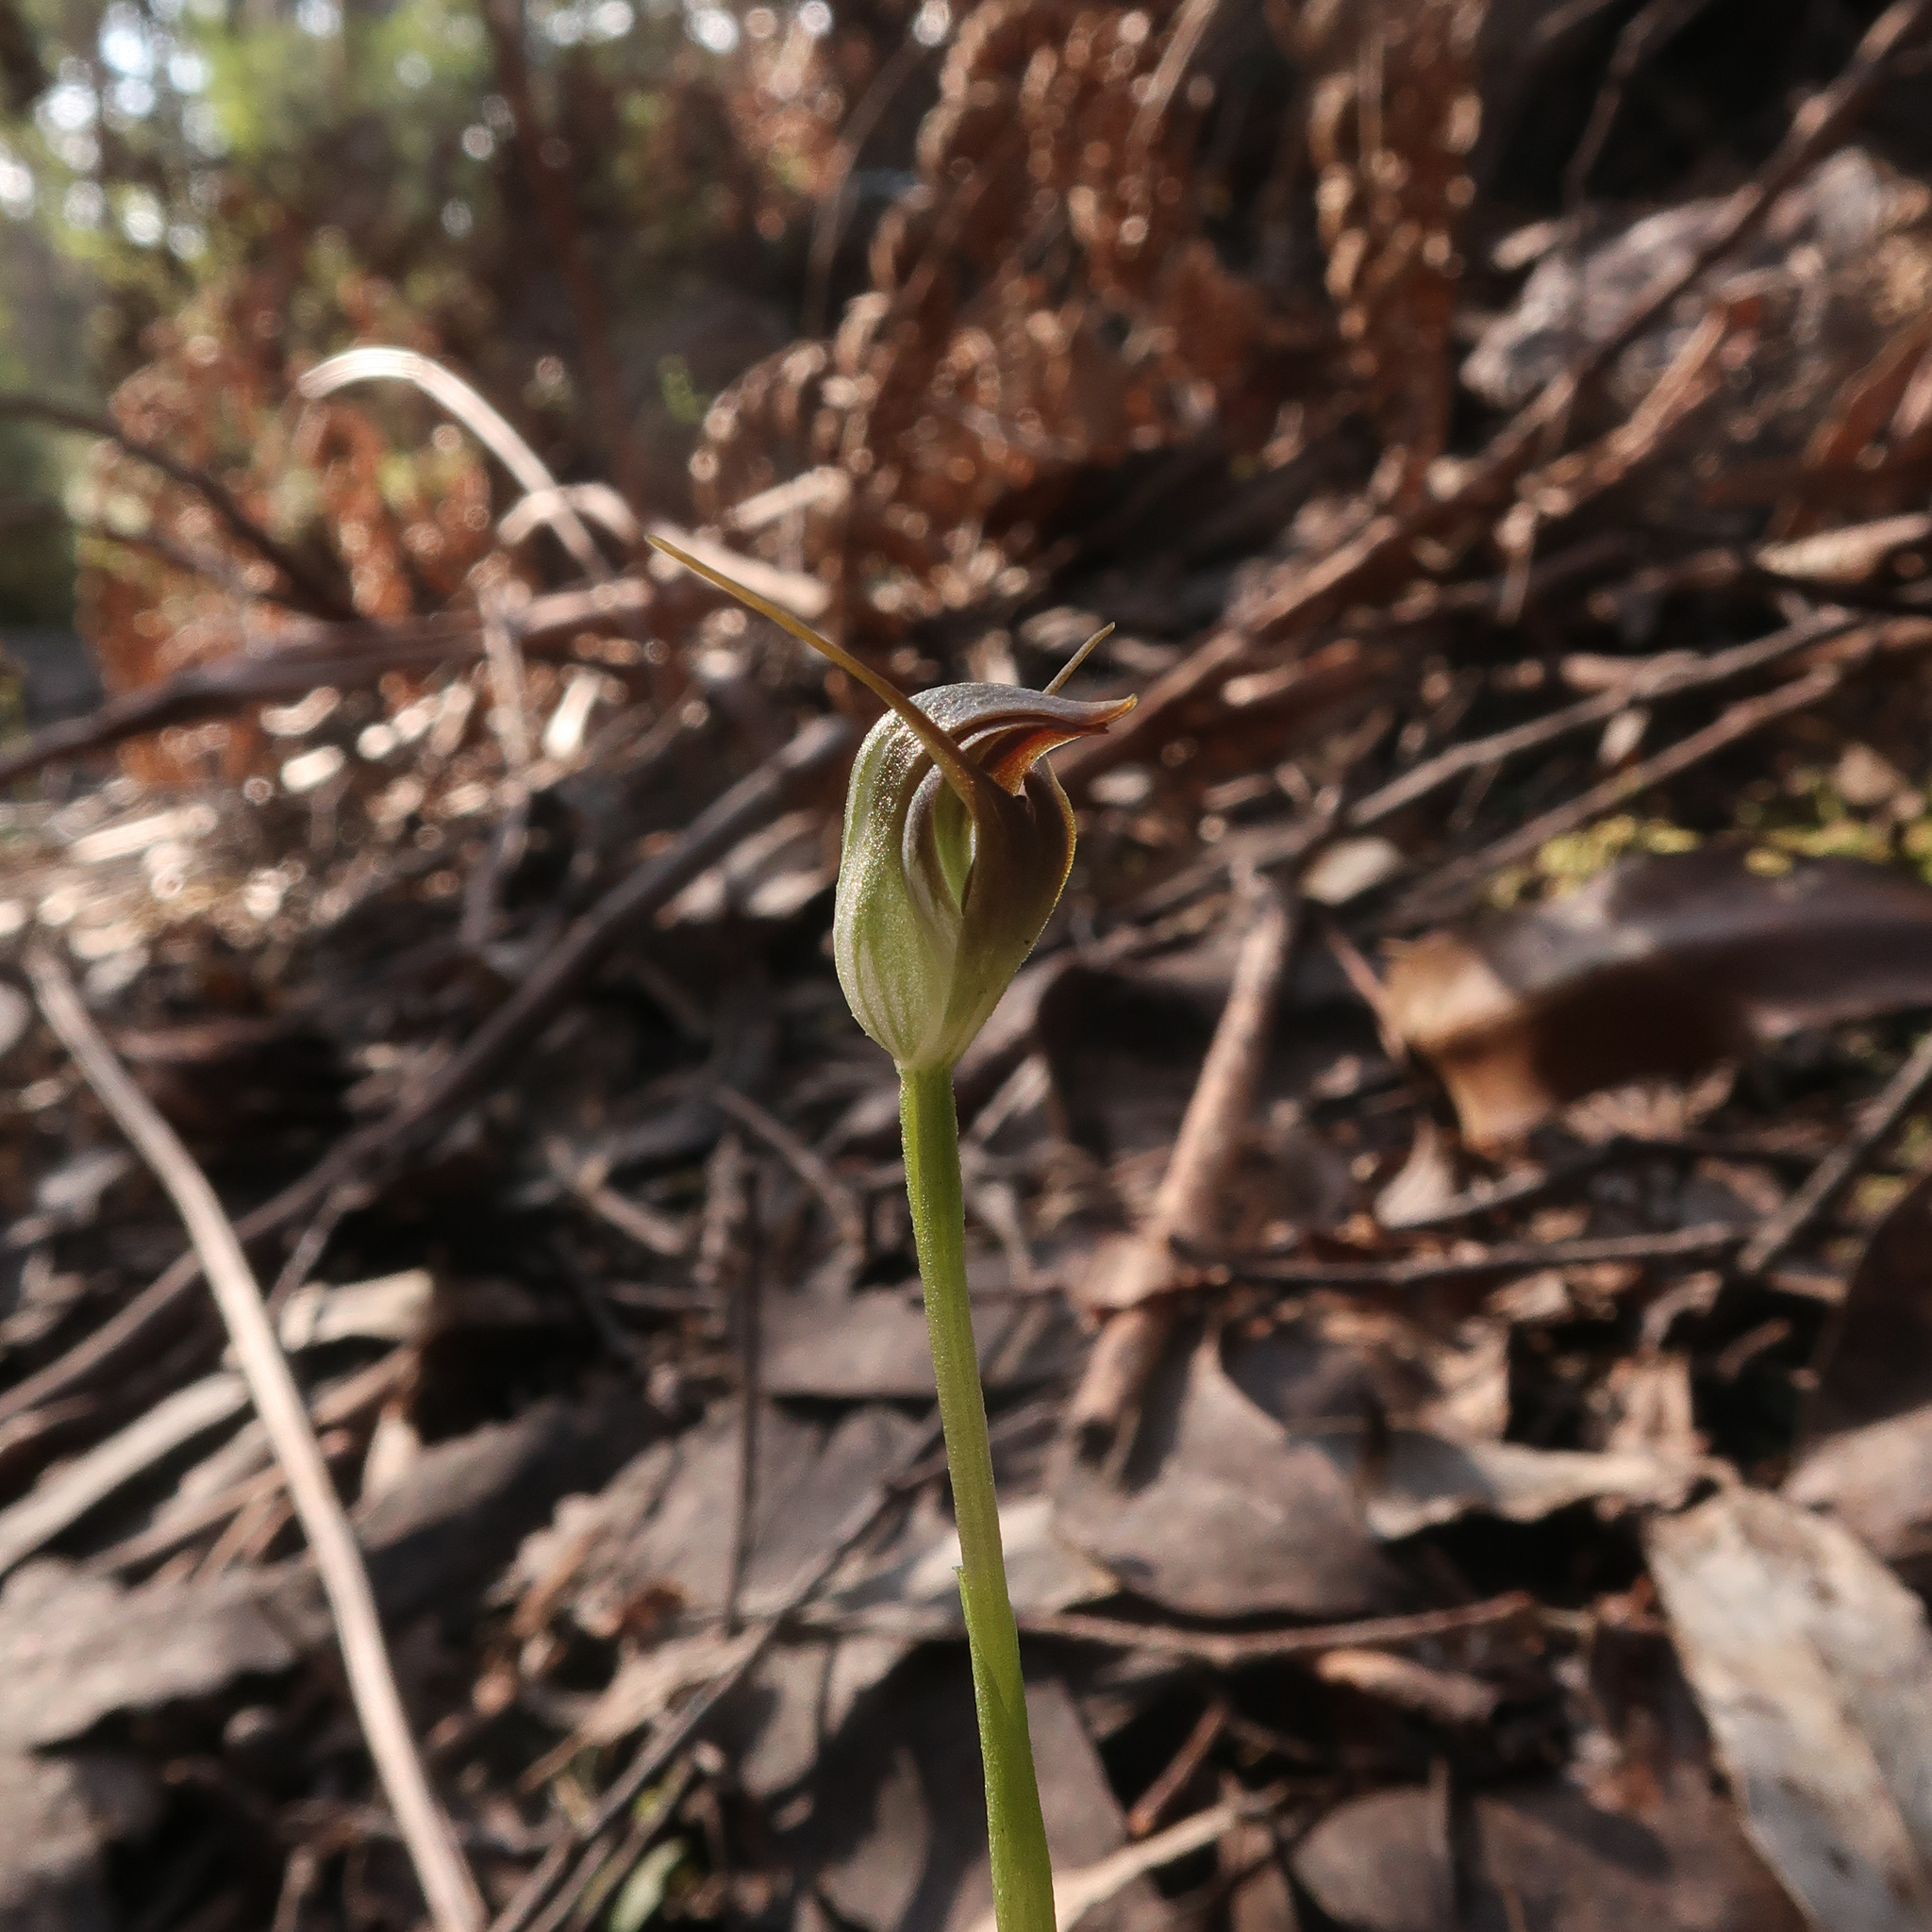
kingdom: Plantae
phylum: Tracheophyta
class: Liliopsida
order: Asparagales
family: Orchidaceae
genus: Pterostylis
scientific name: Pterostylis pedunculata
